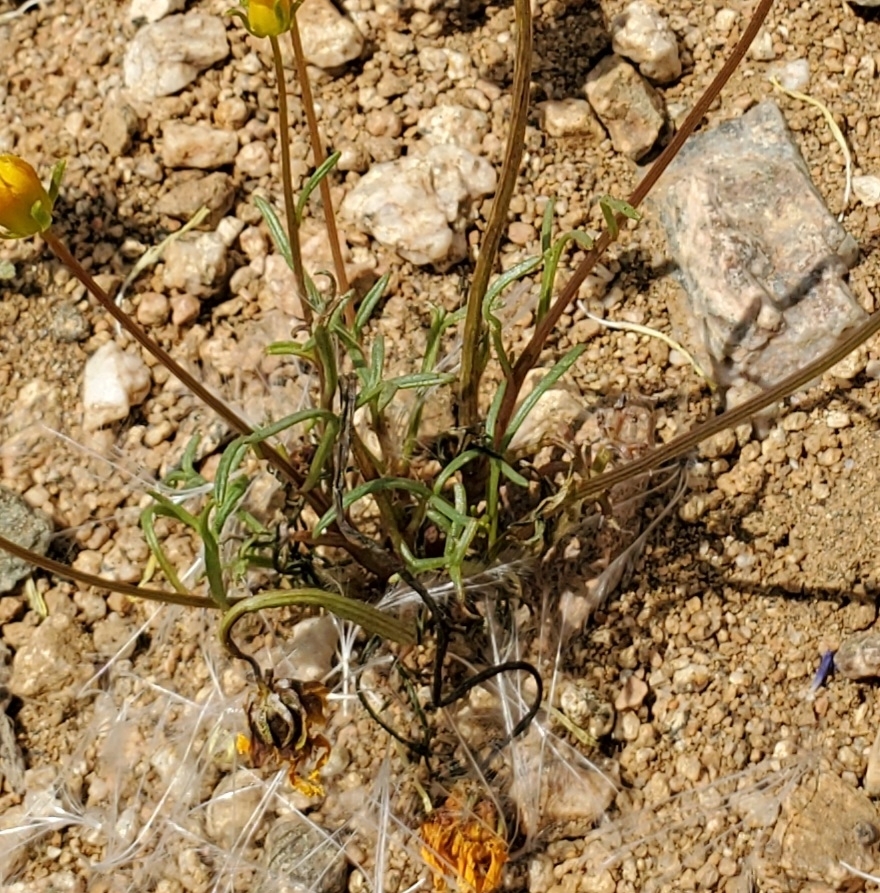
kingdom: Plantae
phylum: Tracheophyta
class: Magnoliopsida
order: Asterales
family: Asteraceae
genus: Coreopsis
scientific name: Coreopsis bigelovii
